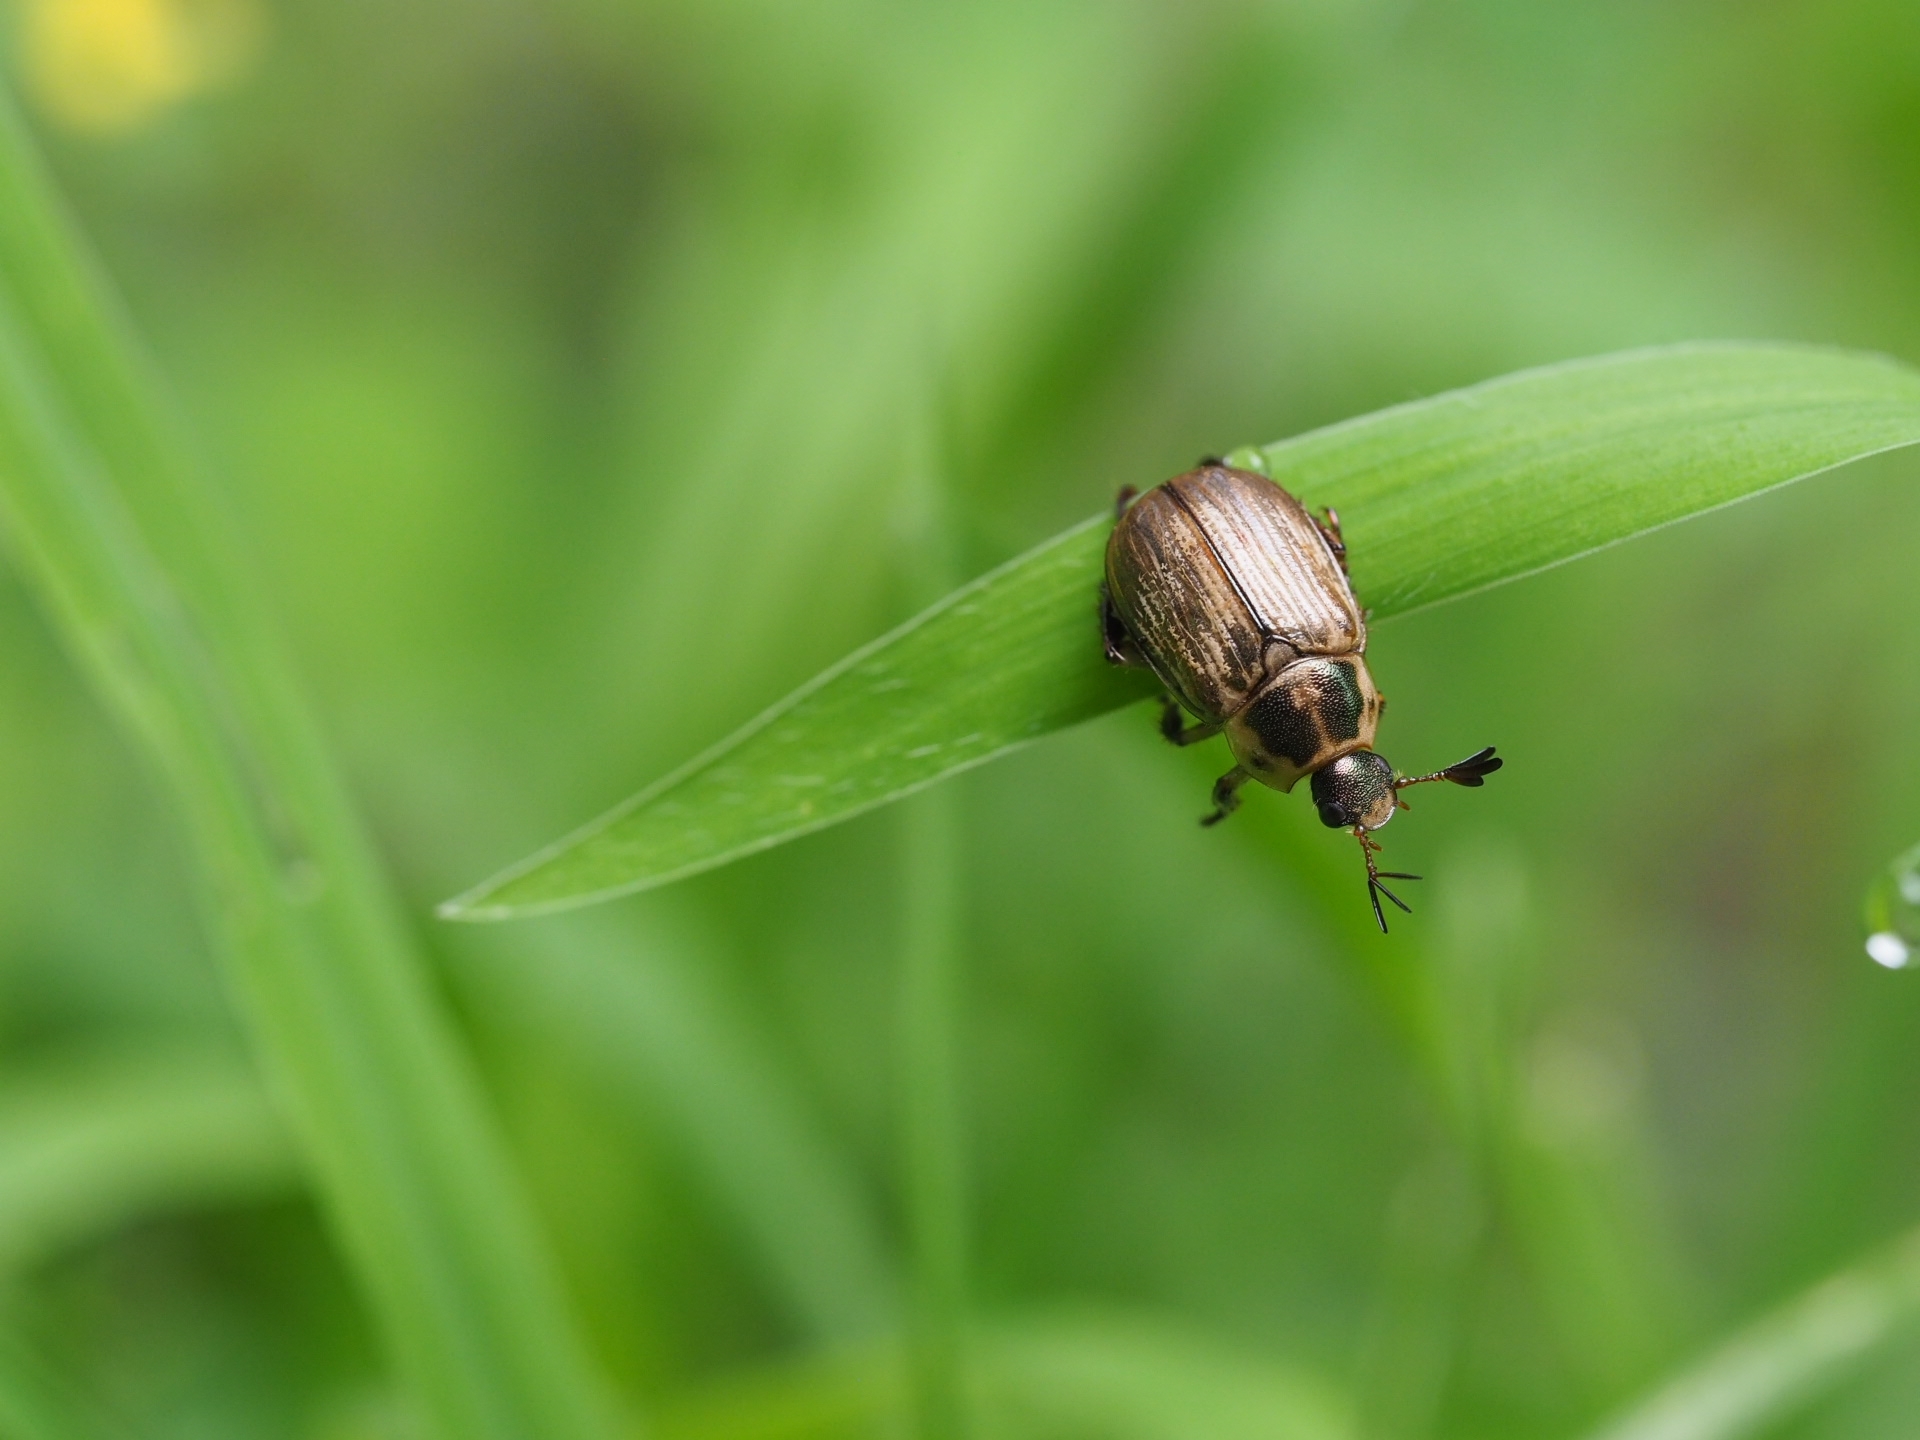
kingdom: Animalia
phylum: Arthropoda
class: Insecta
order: Coleoptera
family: Scarabaeidae
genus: Exomala
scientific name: Exomala orientalis
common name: Oriental beetle
